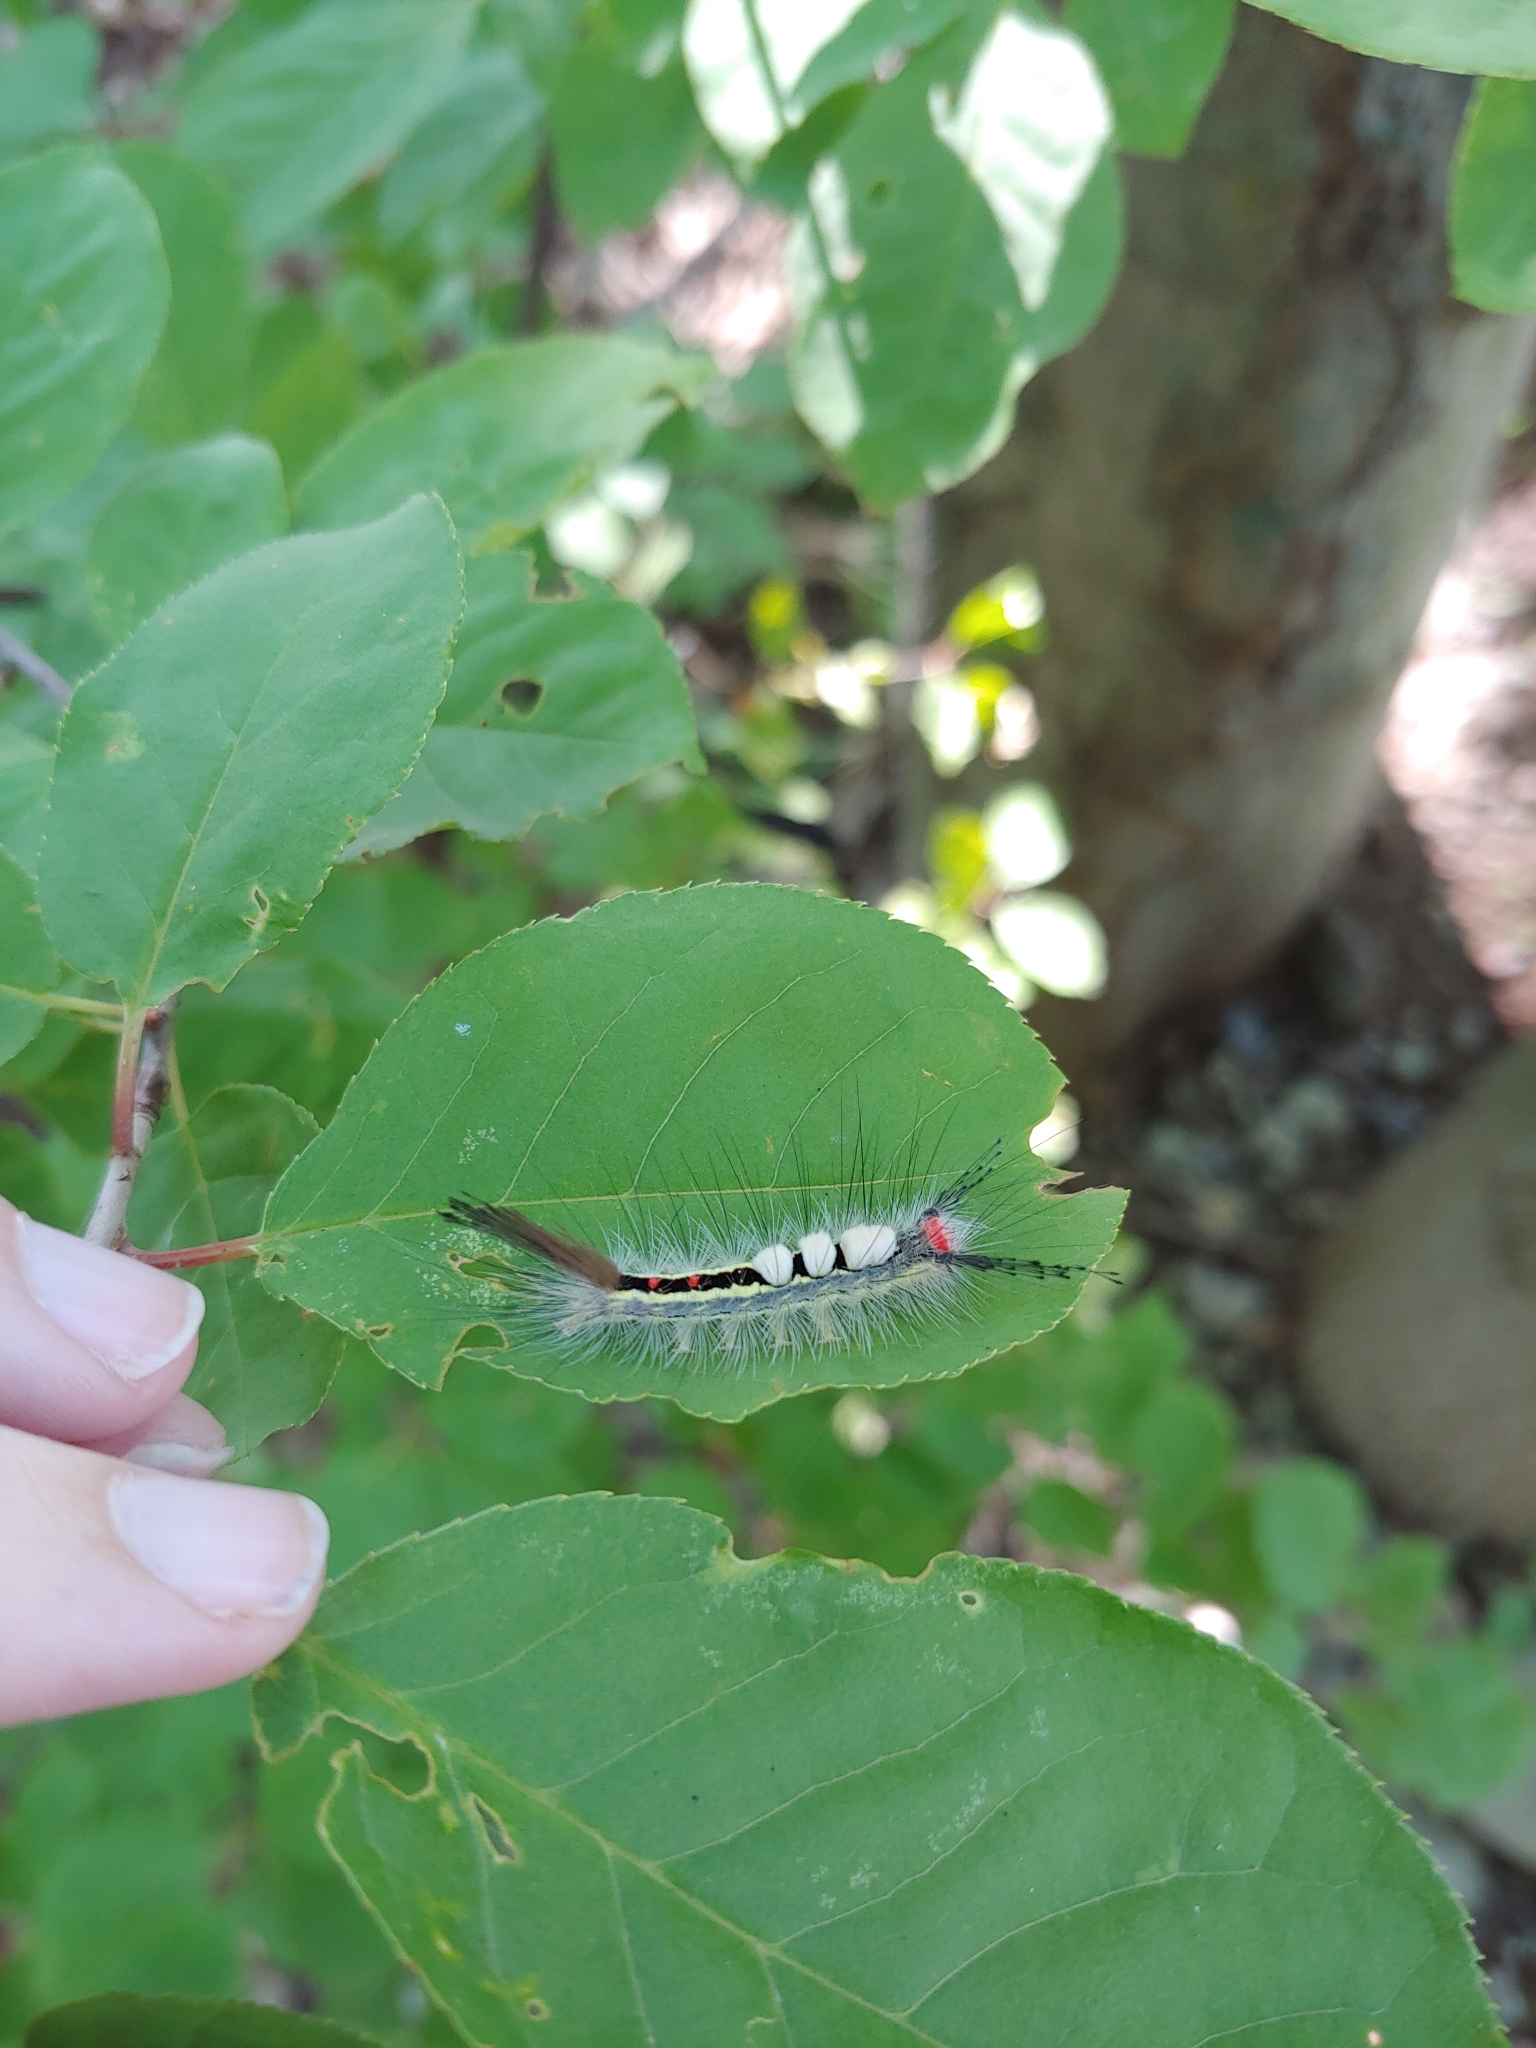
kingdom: Animalia
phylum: Arthropoda
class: Insecta
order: Lepidoptera
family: Erebidae
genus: Orgyia
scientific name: Orgyia leucostigma
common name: White-marked tussock moth
